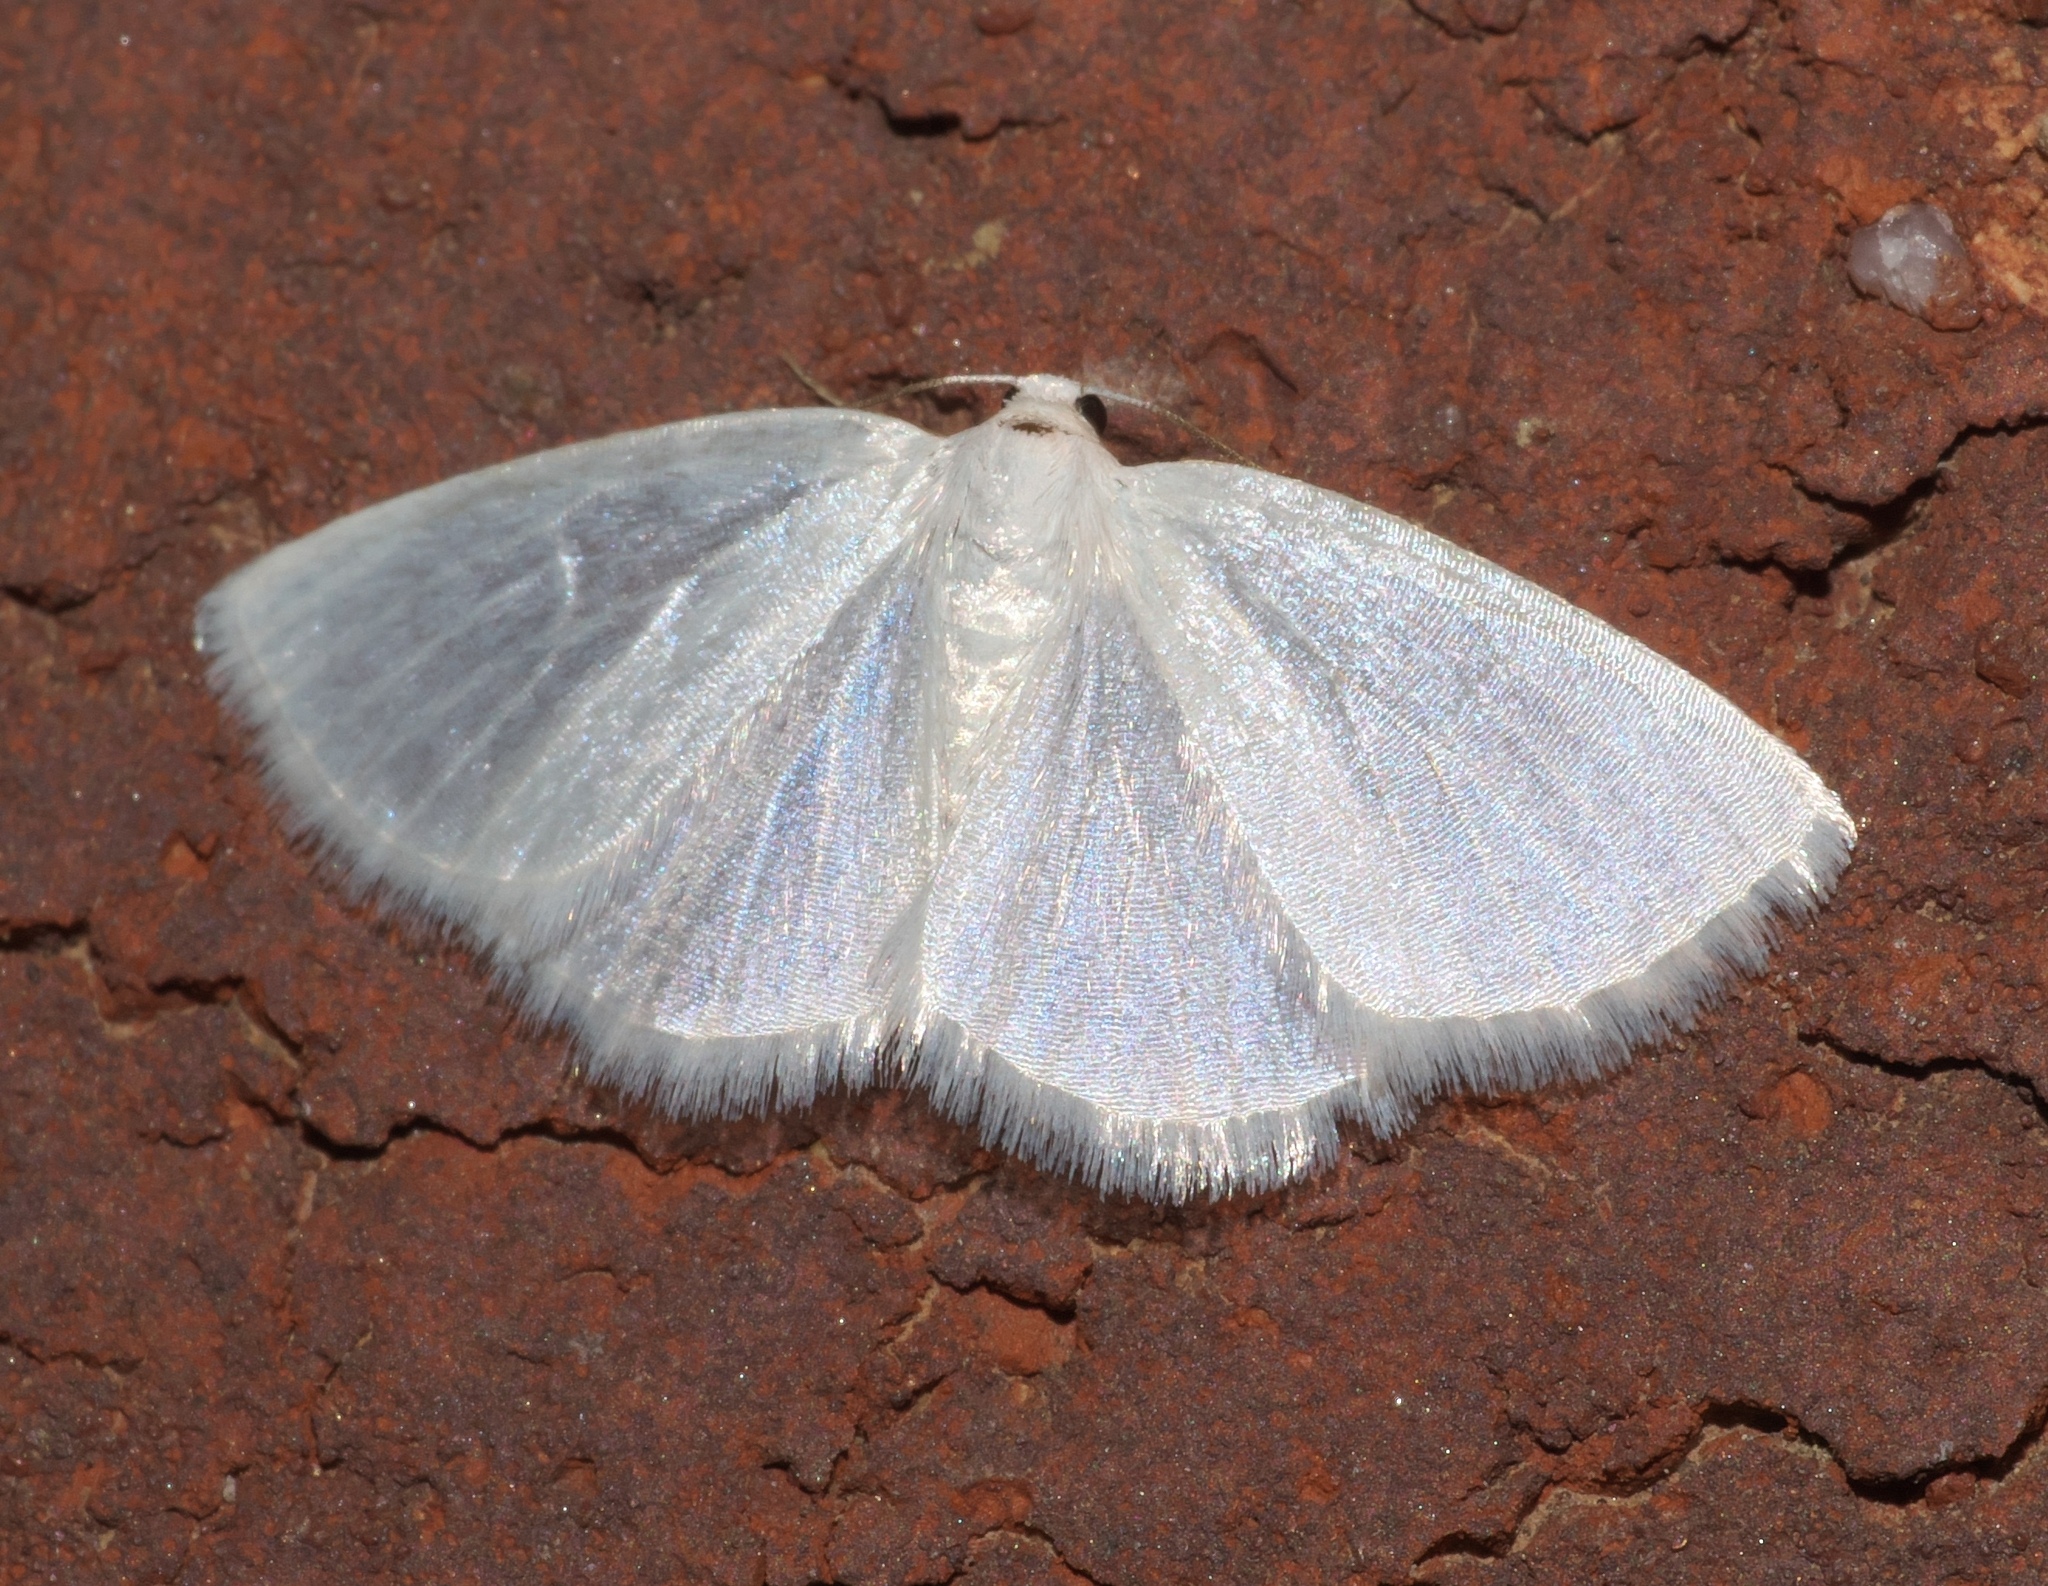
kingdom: Animalia
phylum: Arthropoda
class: Insecta
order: Lepidoptera
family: Geometridae
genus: Lomographa
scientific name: Lomographa vestaliata
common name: White spring moth
